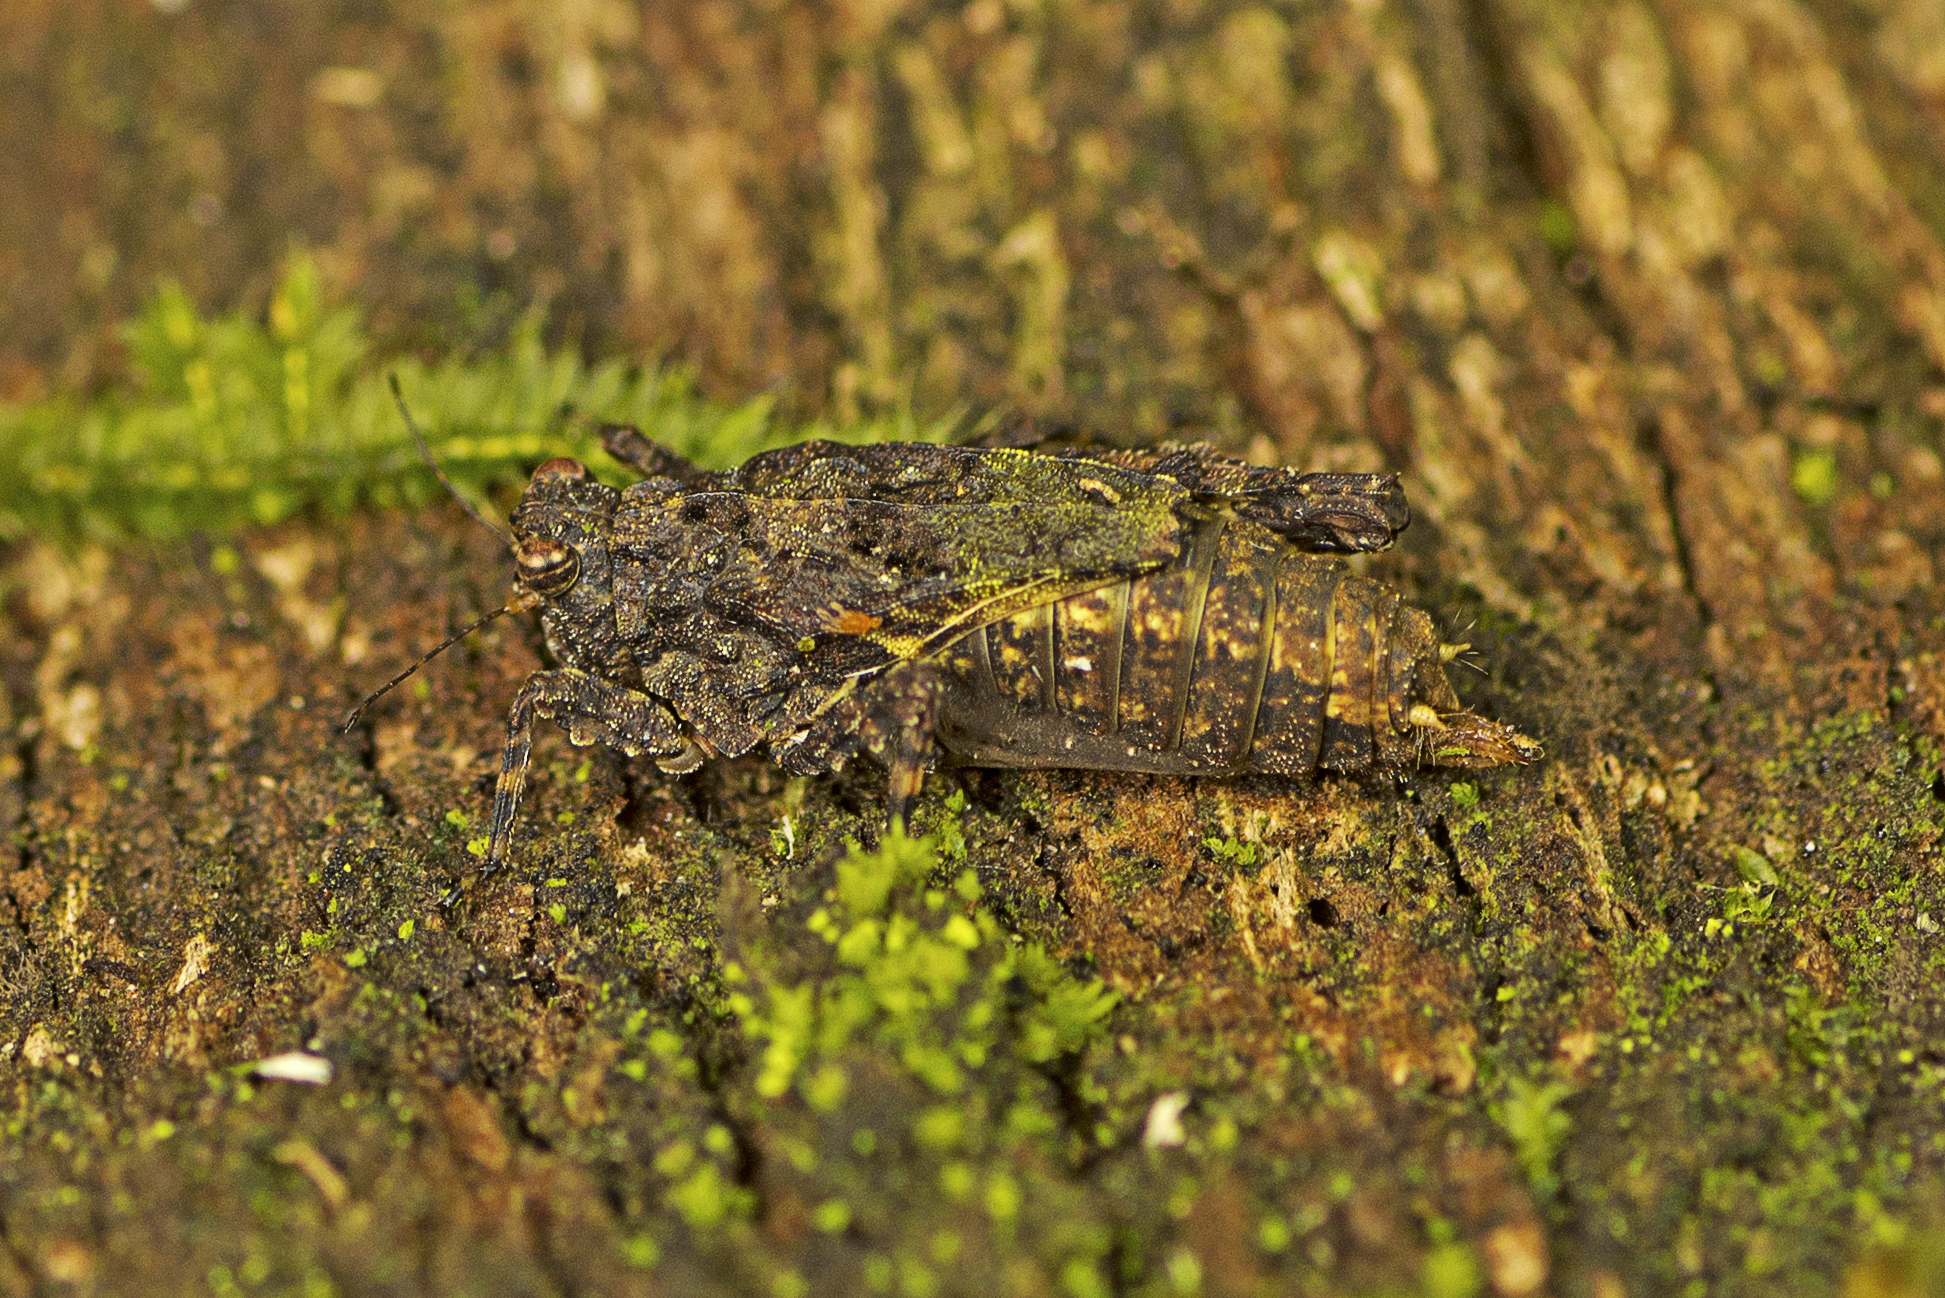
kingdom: Animalia
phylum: Arthropoda
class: Insecta
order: Orthoptera
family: Tetrigidae
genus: Tepperotettix
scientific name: Tepperotettix reliqua
